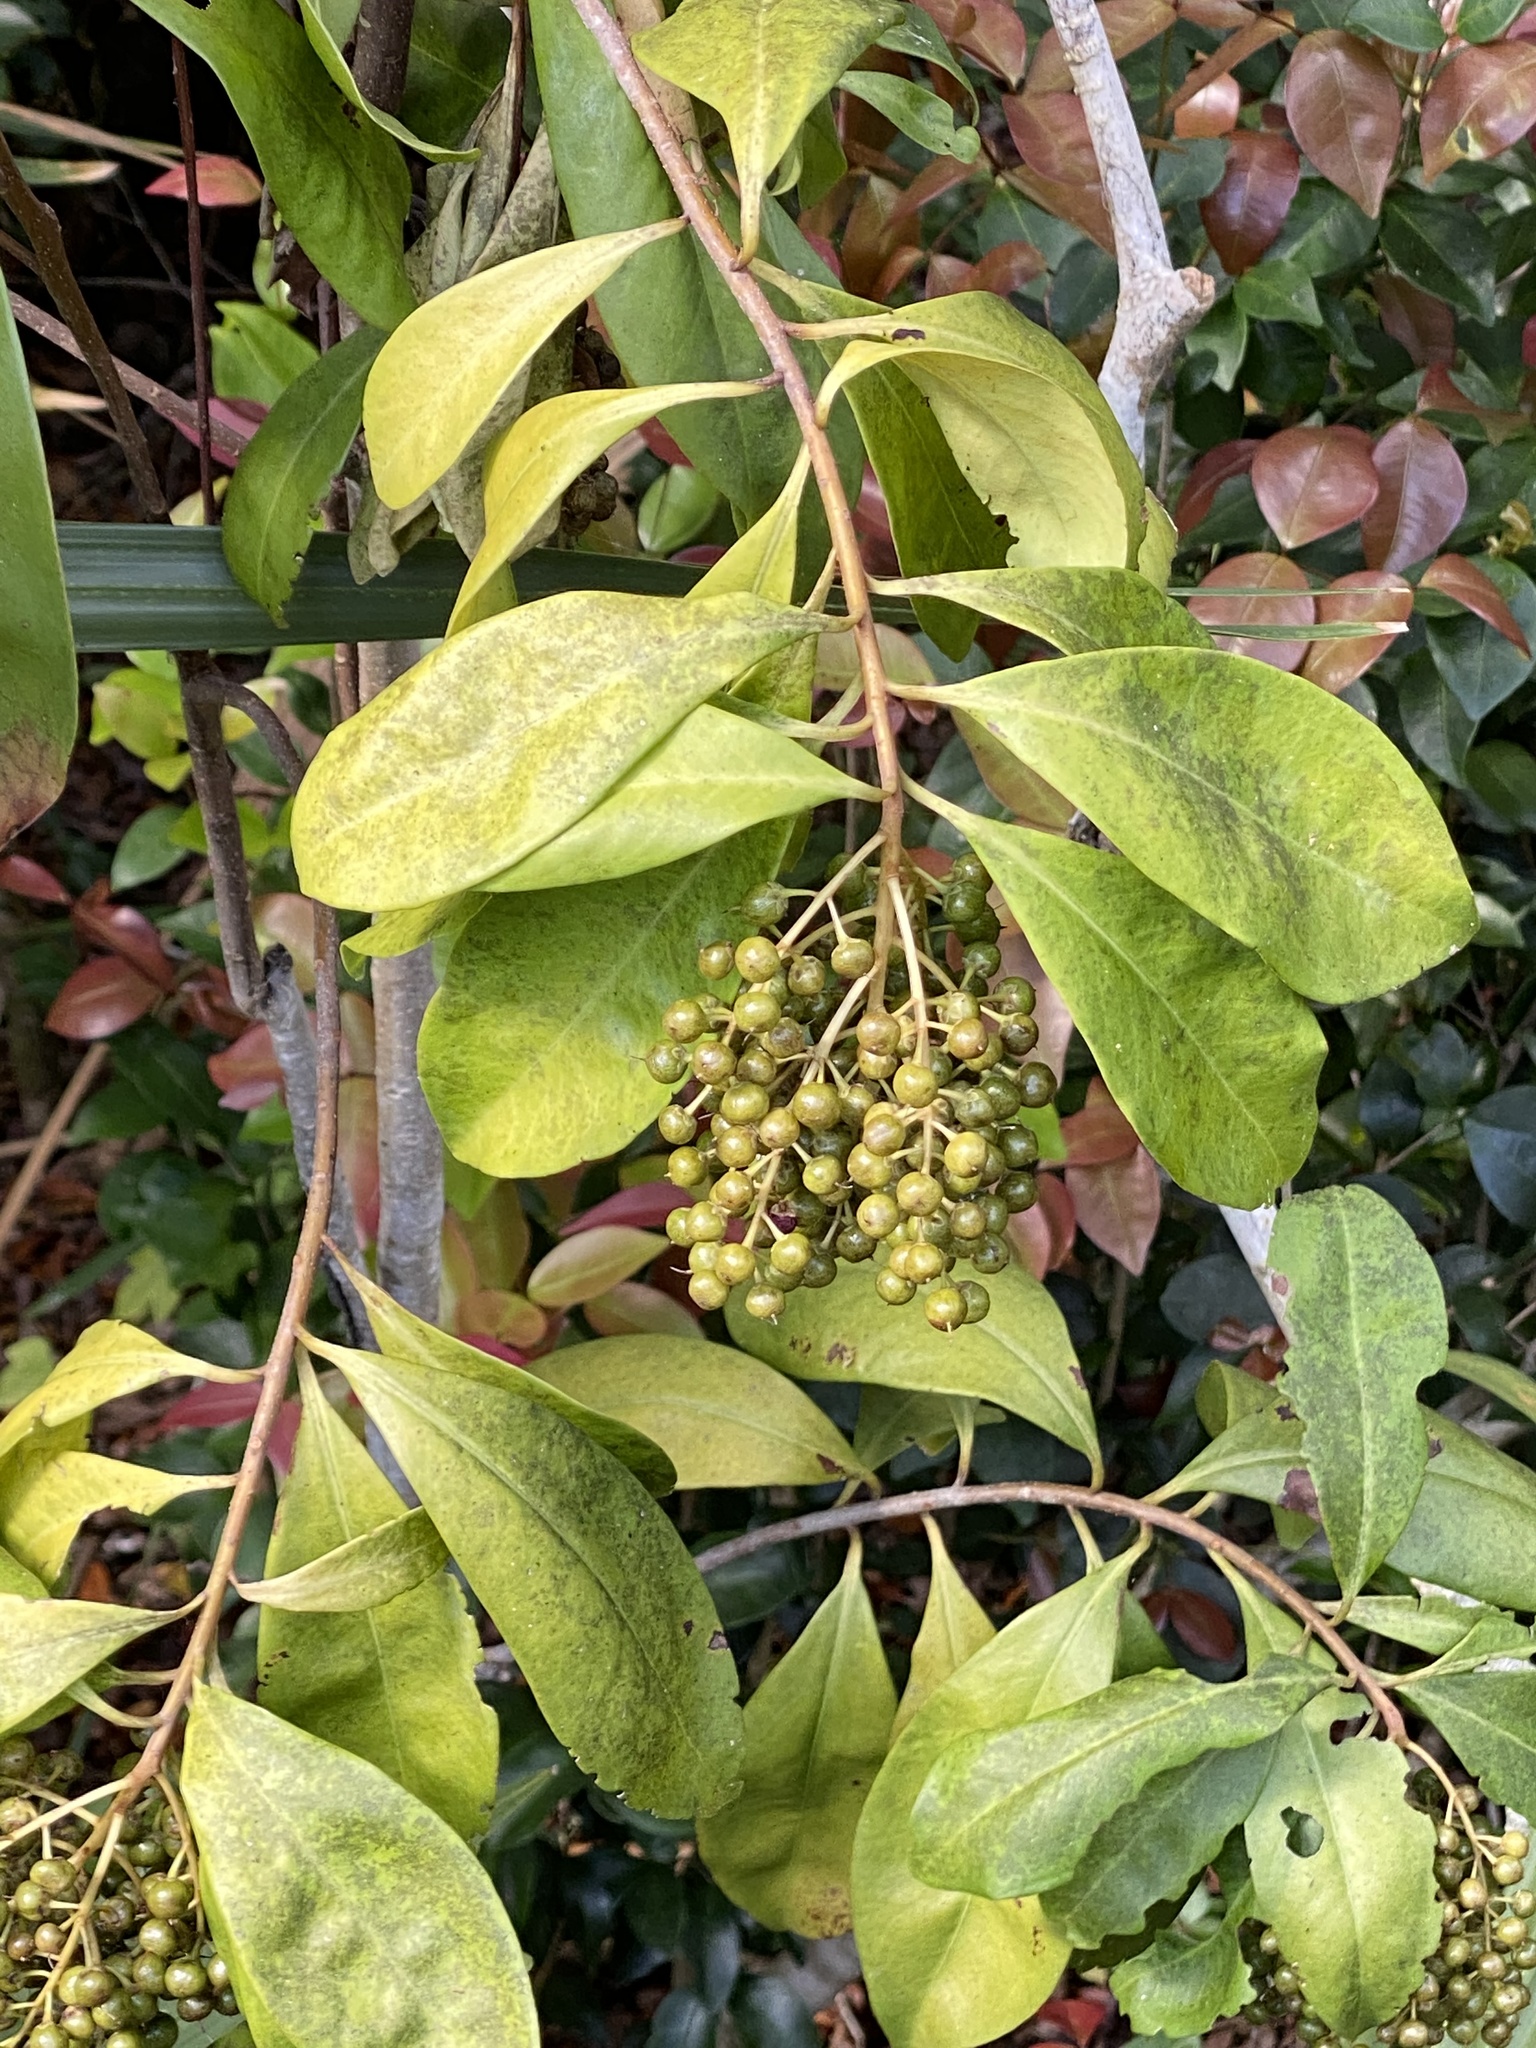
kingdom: Plantae
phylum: Tracheophyta
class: Magnoliopsida
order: Ericales
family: Primulaceae
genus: Ardisia
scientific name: Ardisia escallonioides
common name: Island marlberry
